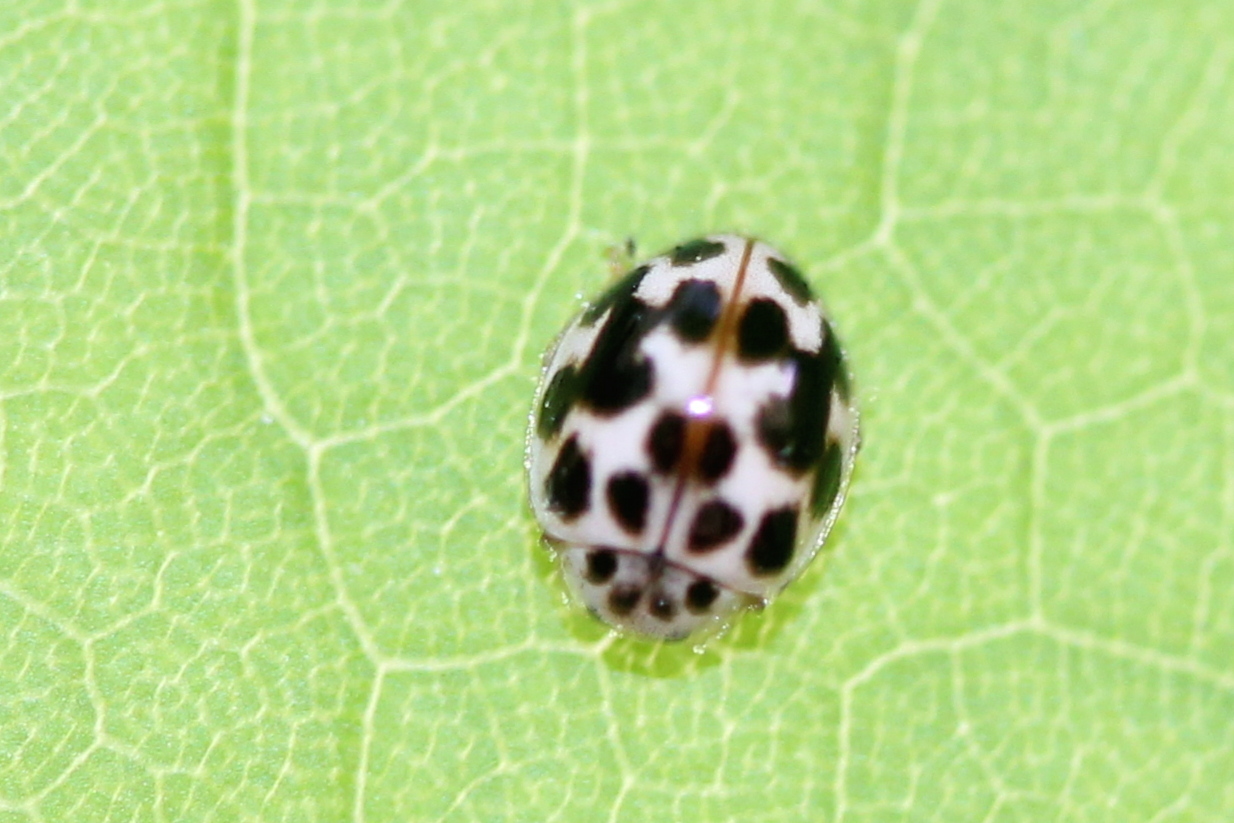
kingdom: Animalia
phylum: Arthropoda
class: Insecta
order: Coleoptera
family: Coccinellidae
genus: Psyllobora
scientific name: Psyllobora vigintimaculata
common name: Ladybird beetle
